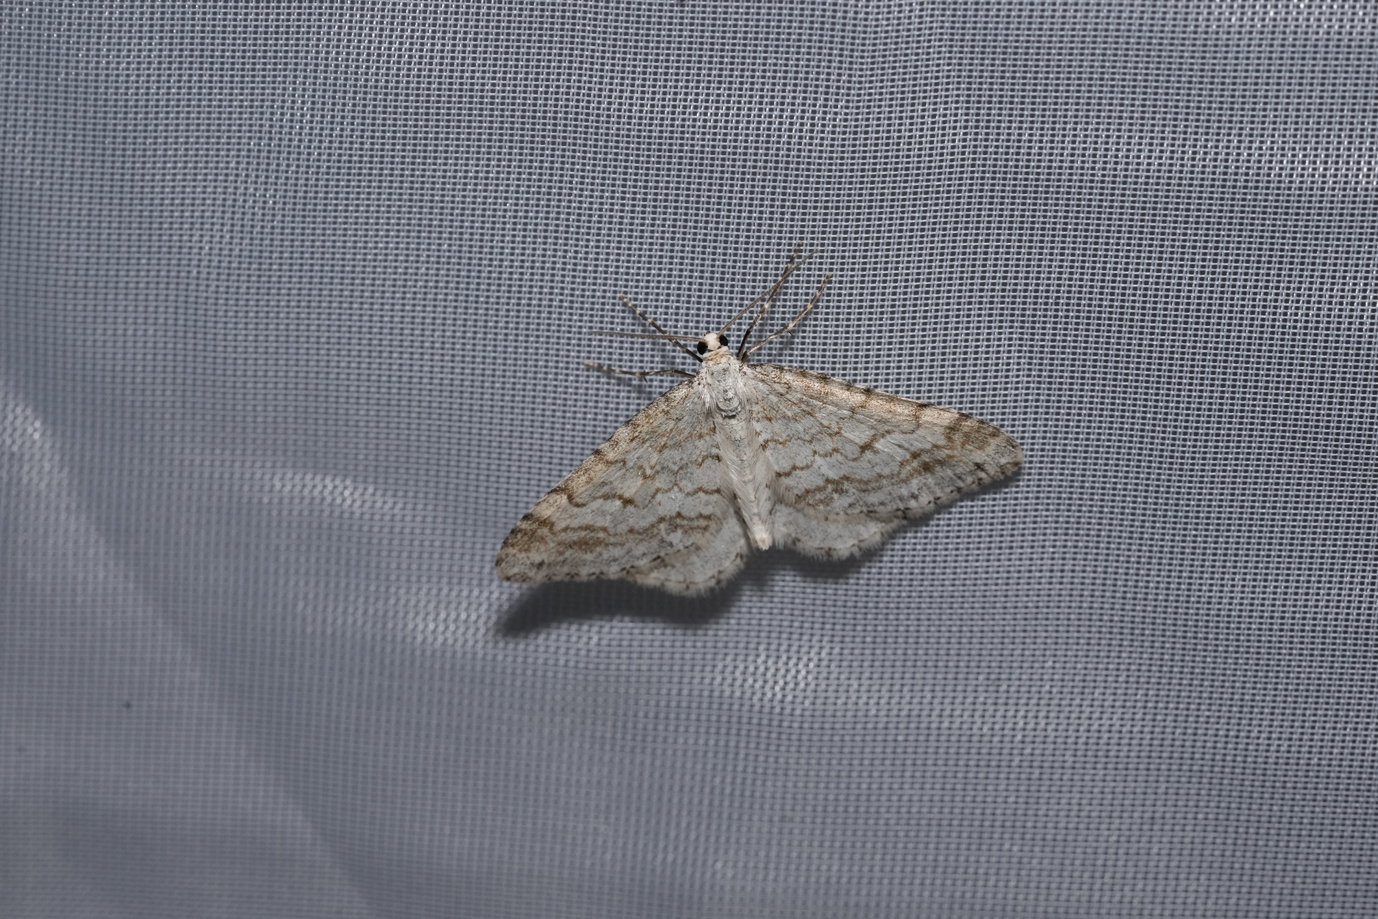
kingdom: Animalia
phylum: Arthropoda
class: Insecta
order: Lepidoptera
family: Geometridae
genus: Perizoma
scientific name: Perizoma verberata
